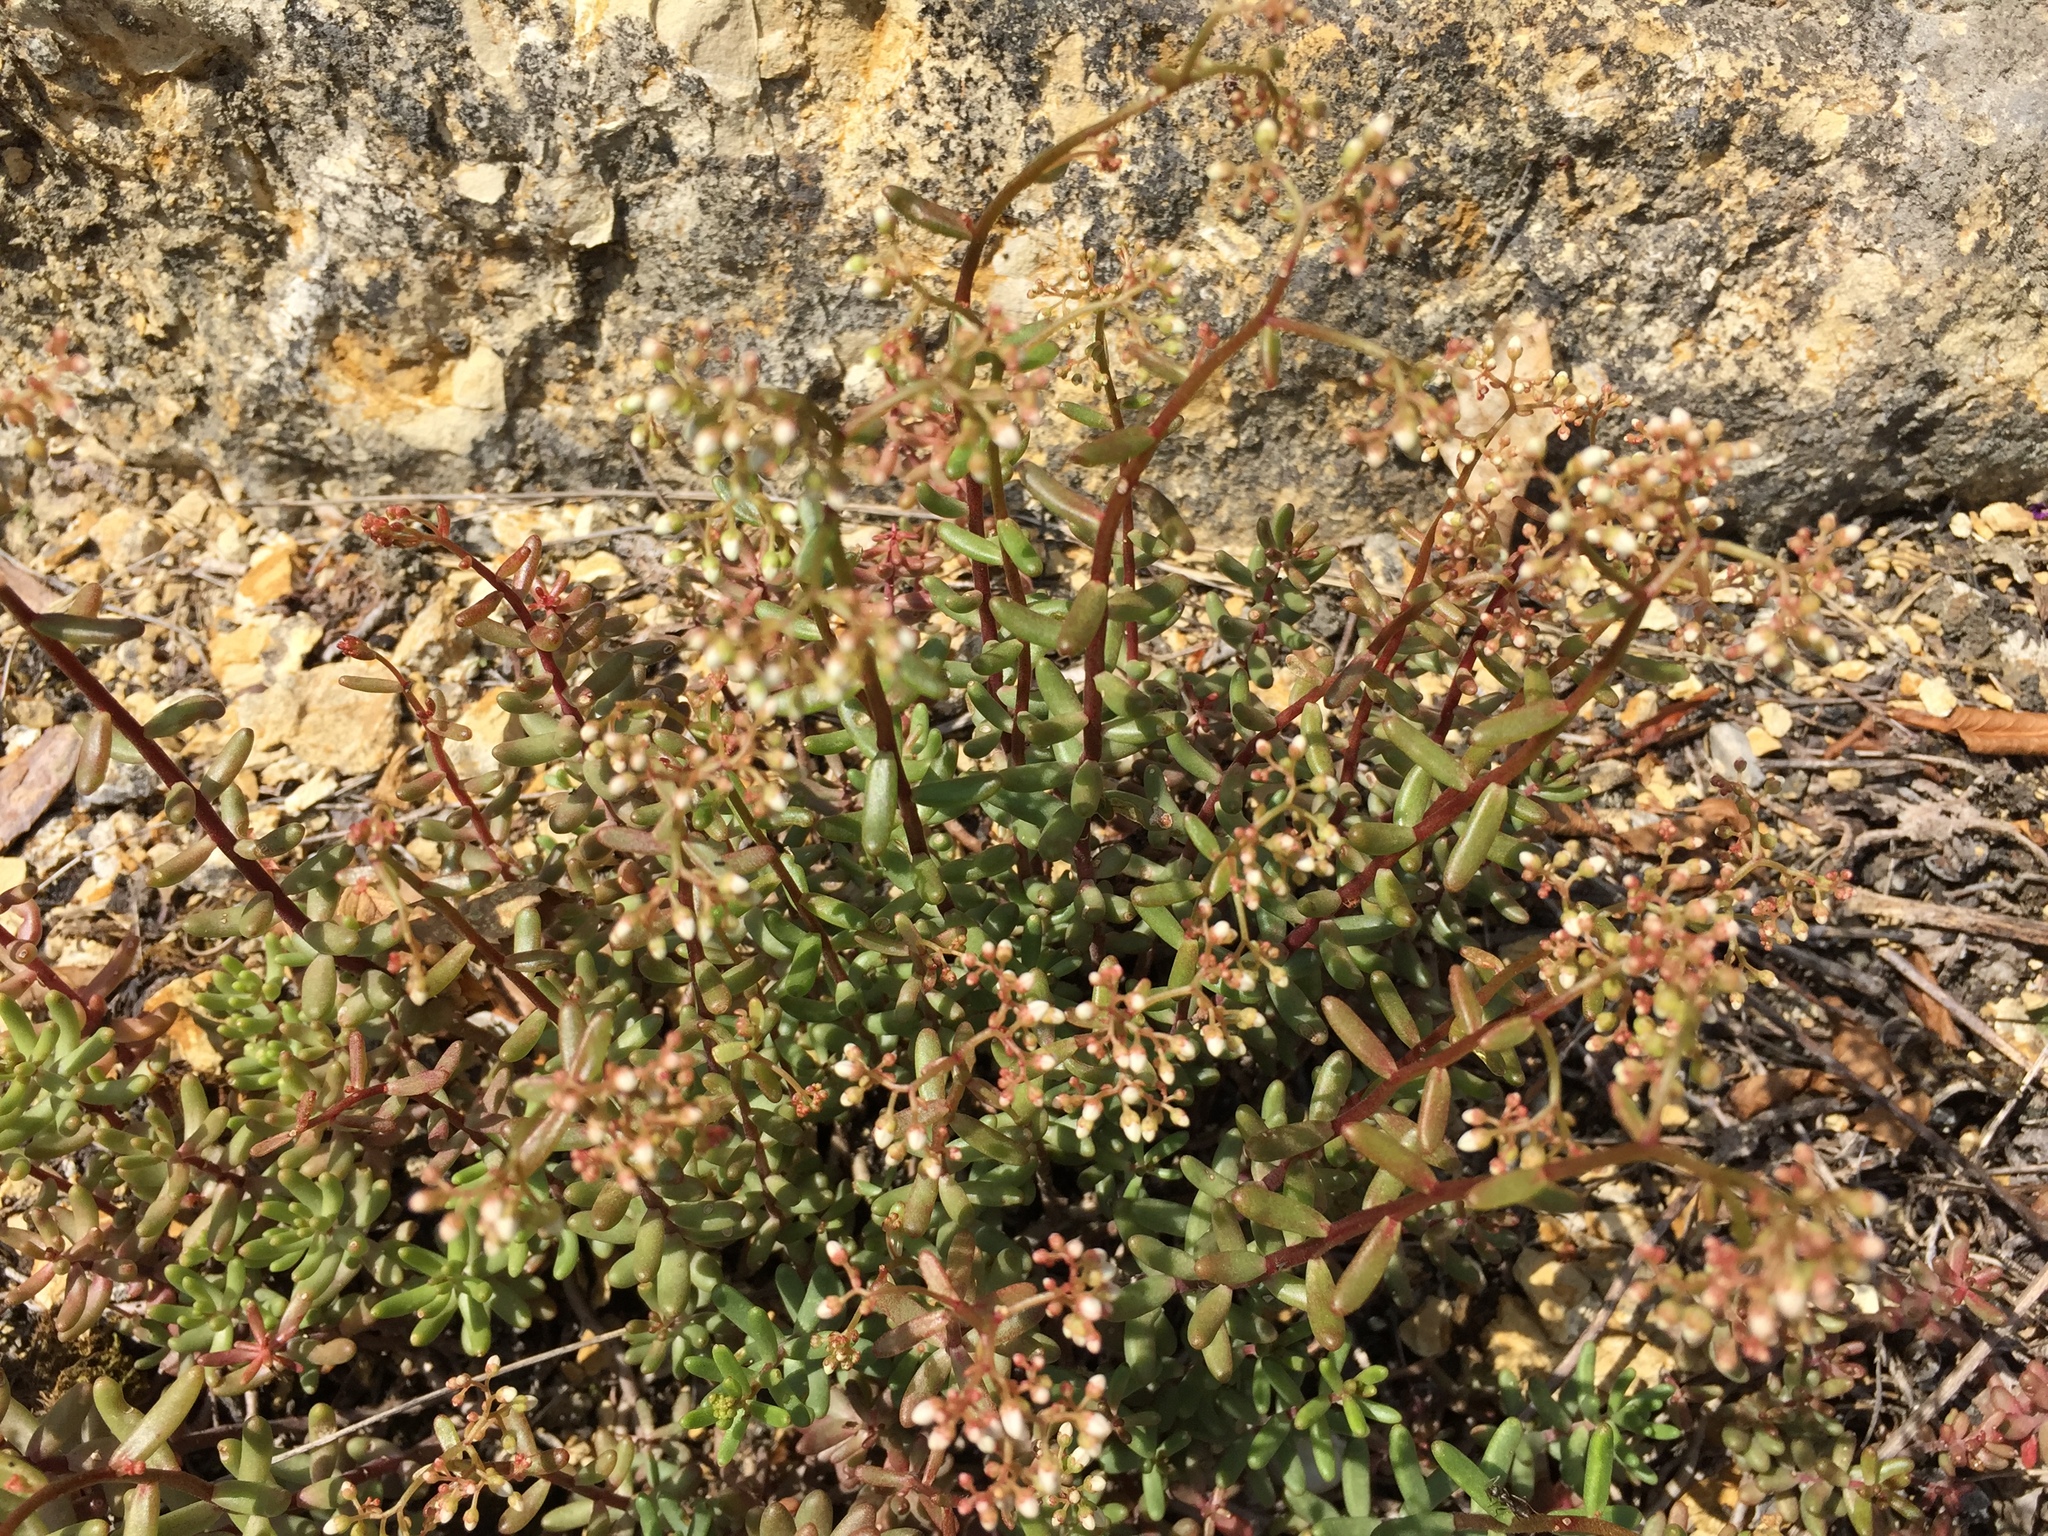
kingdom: Plantae
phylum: Tracheophyta
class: Magnoliopsida
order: Saxifragales
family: Crassulaceae
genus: Sedum
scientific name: Sedum album
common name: White stonecrop
